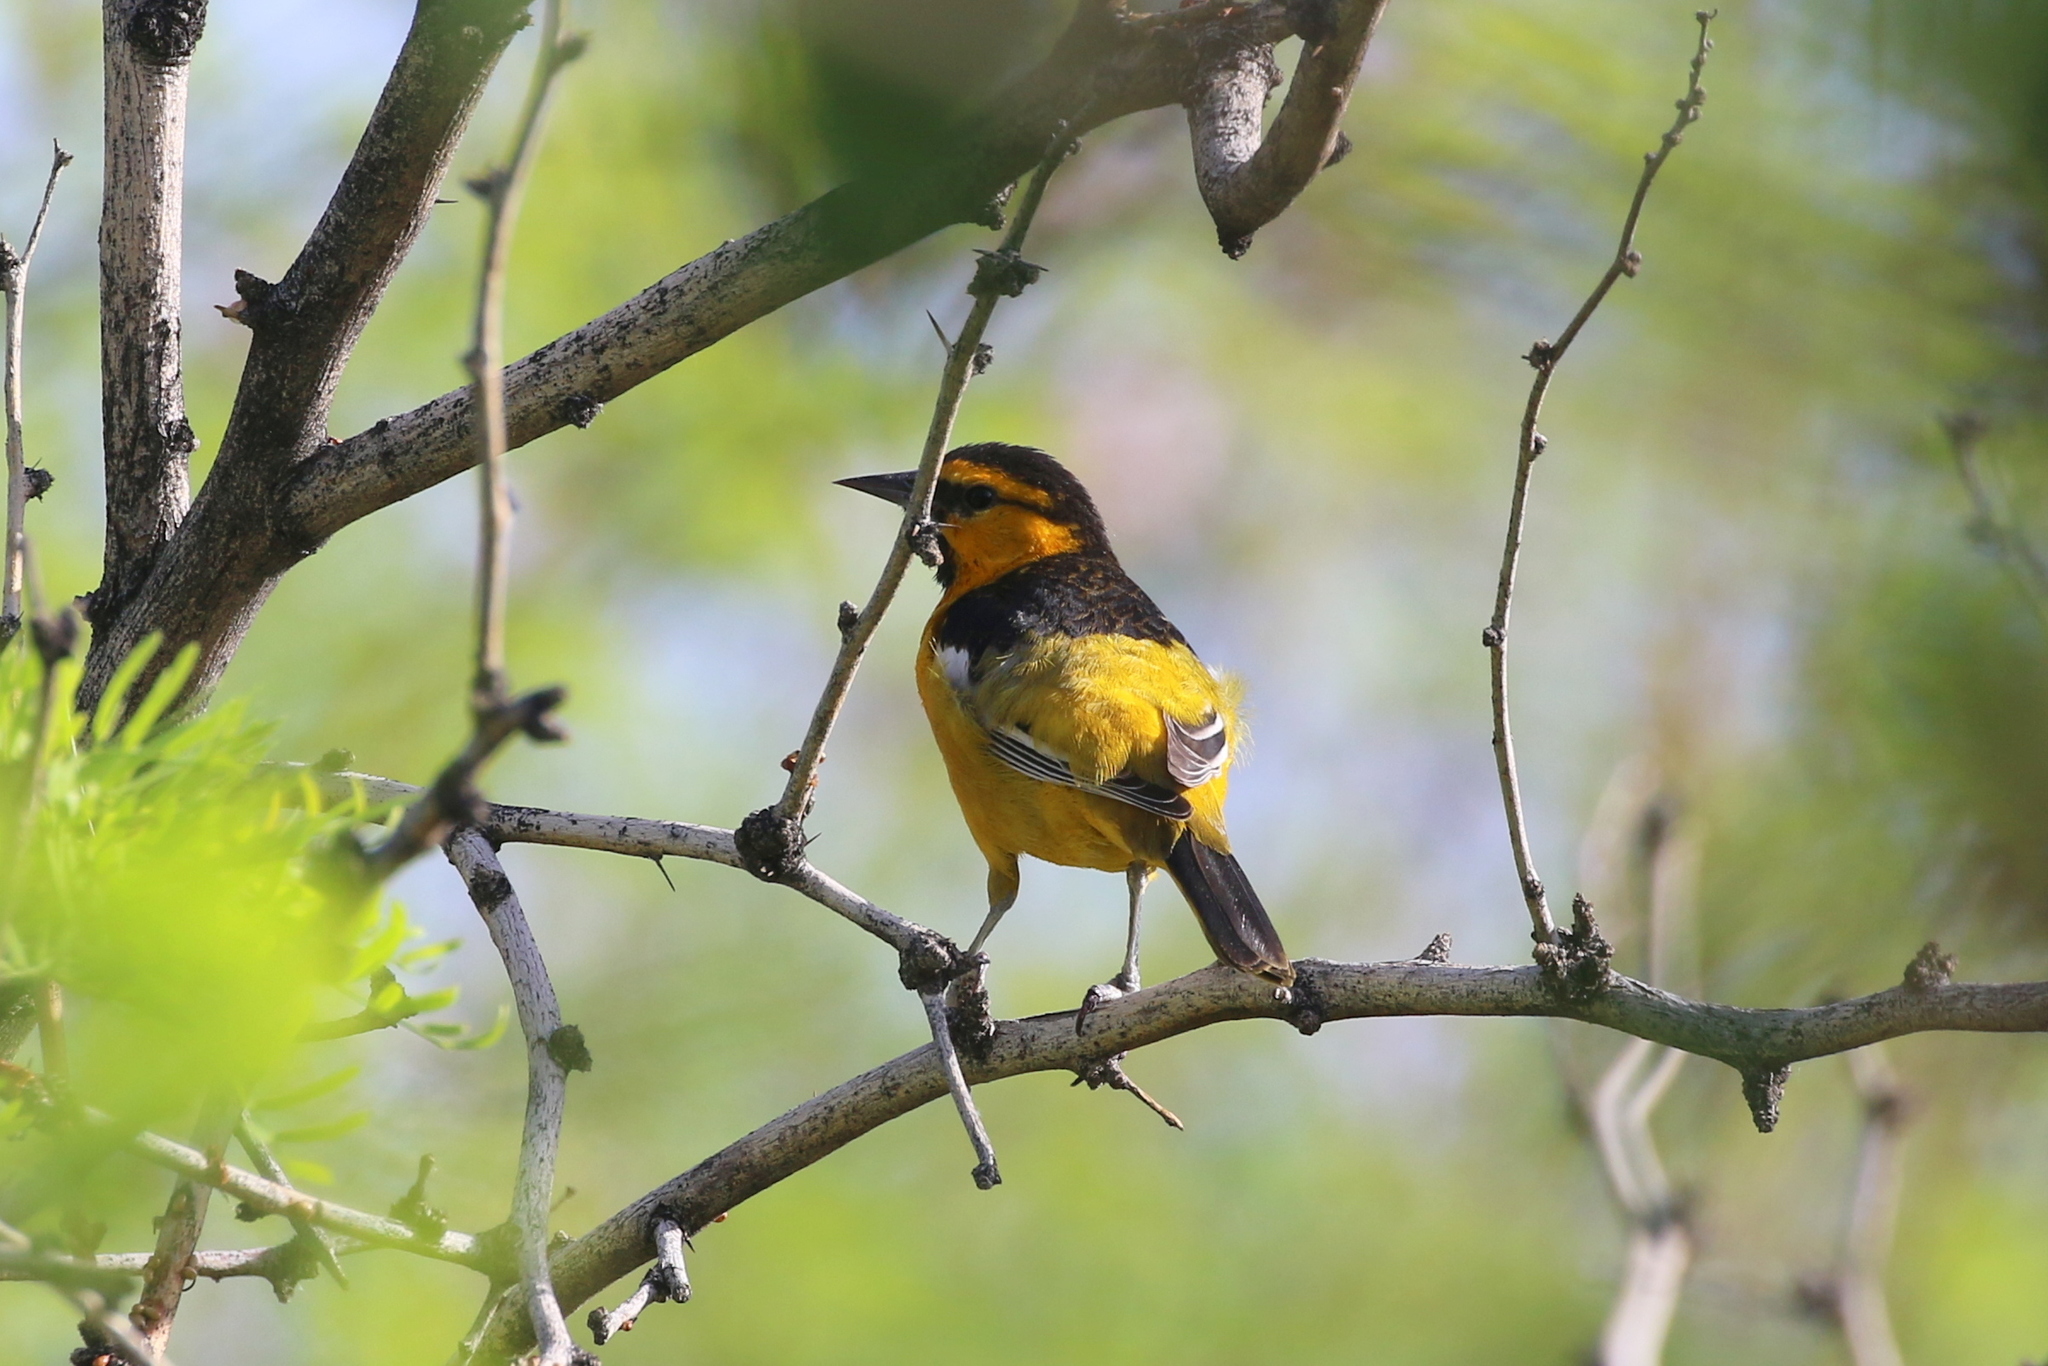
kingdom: Animalia
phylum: Chordata
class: Aves
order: Passeriformes
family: Icteridae
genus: Icterus
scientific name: Icterus bullockii
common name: Bullock's oriole
